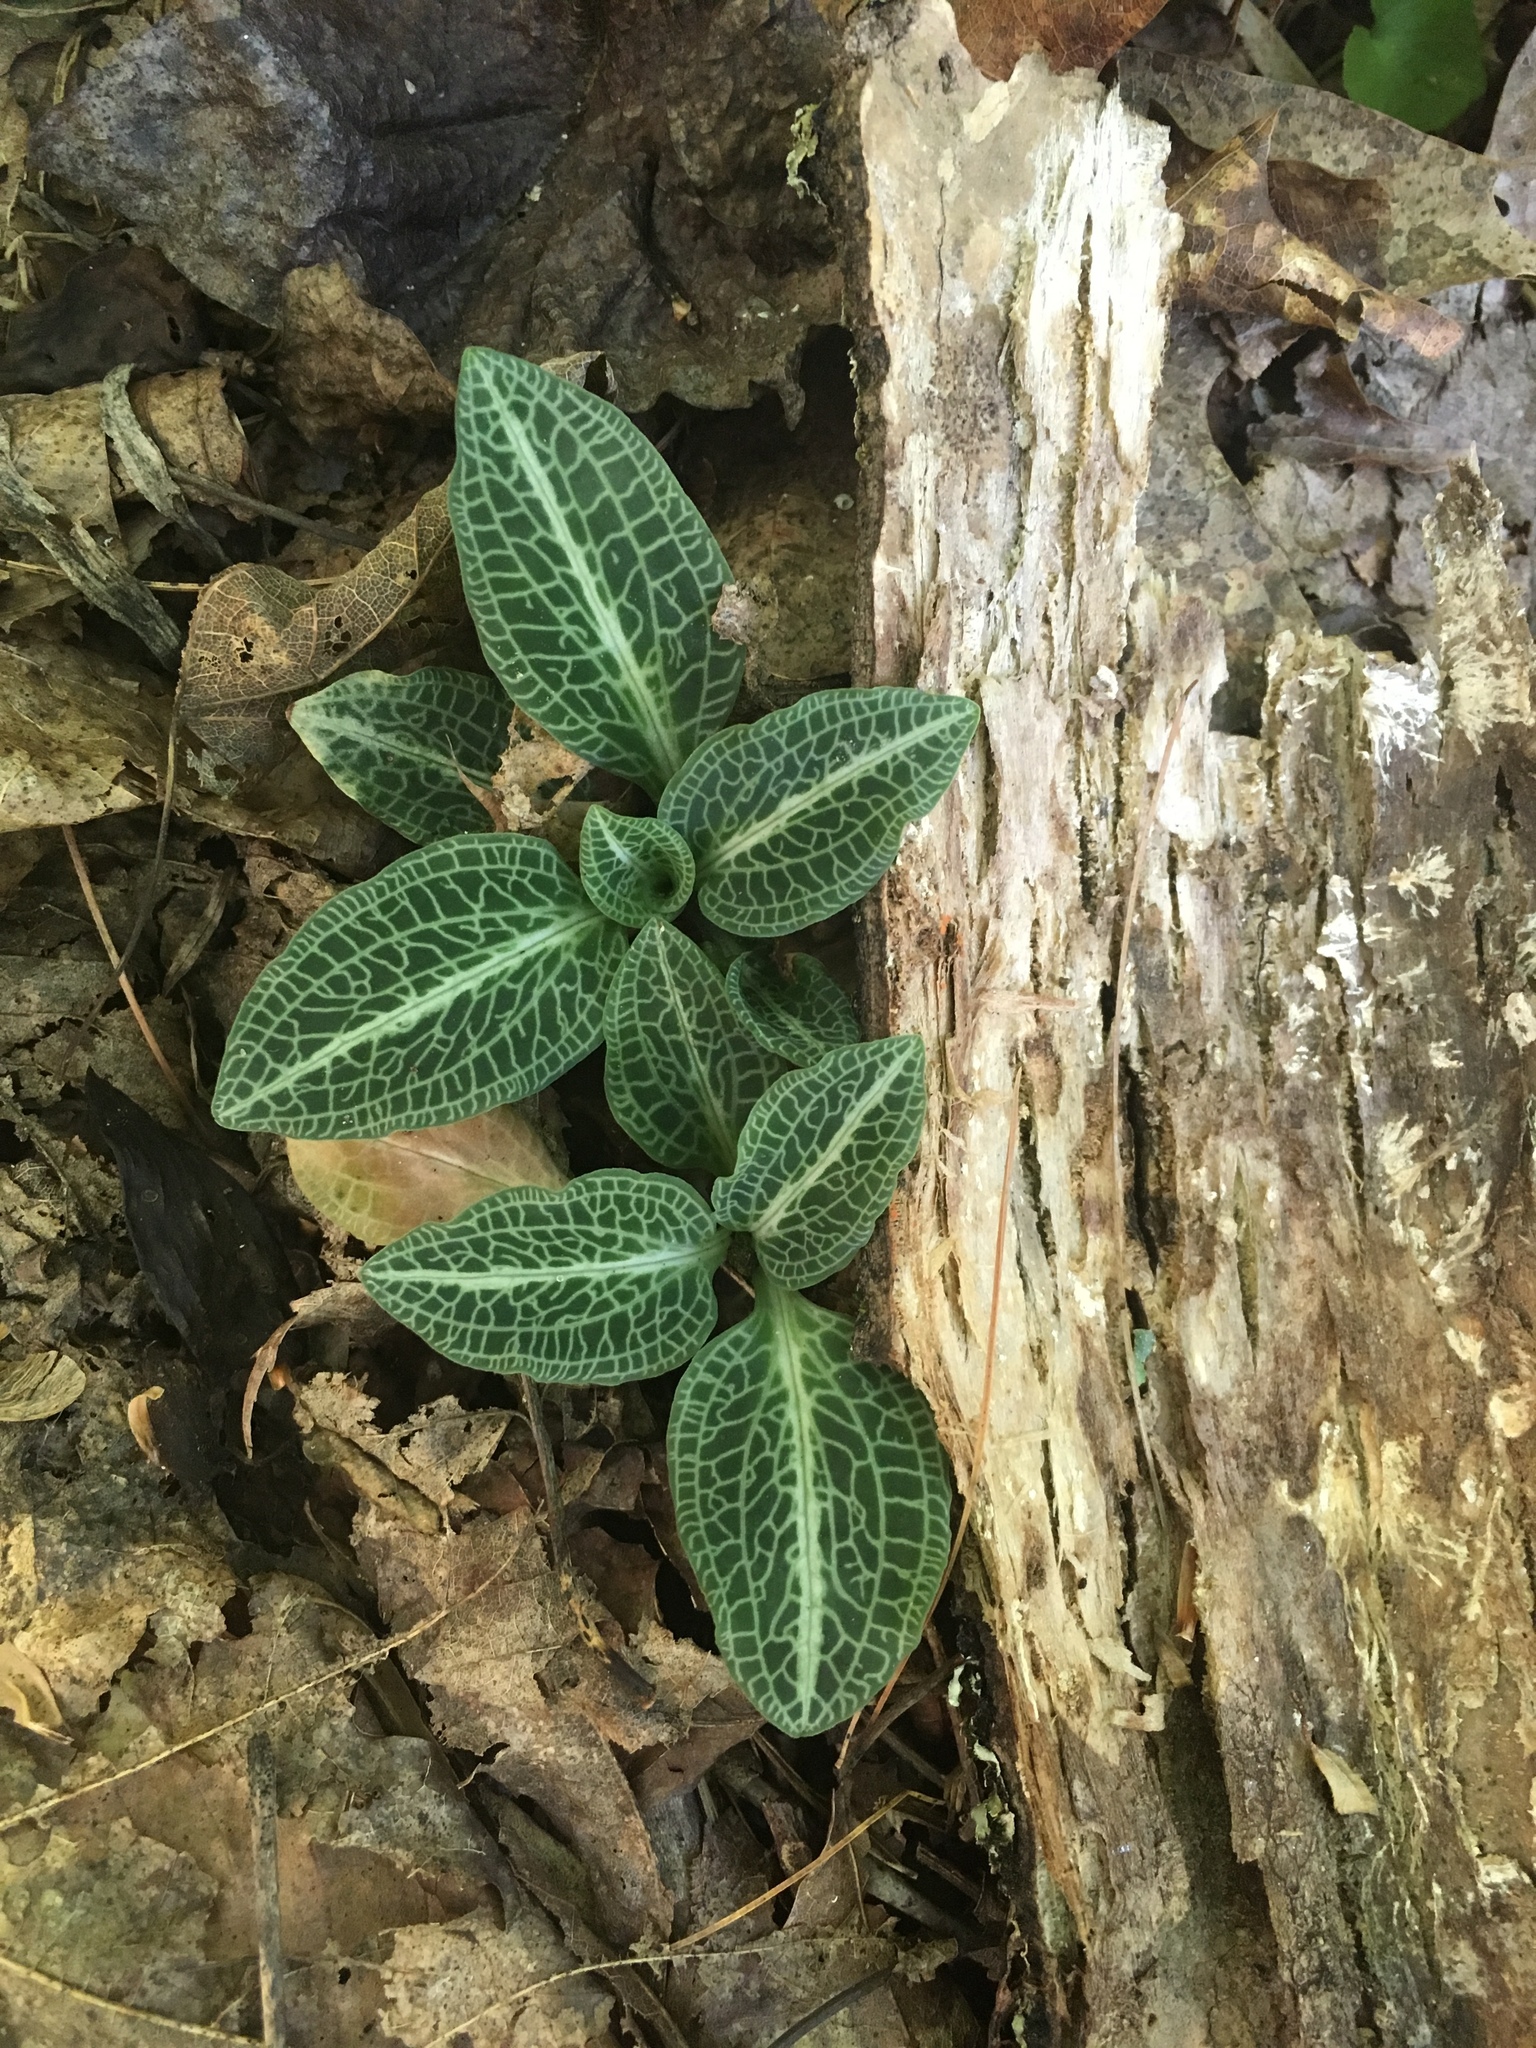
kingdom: Plantae
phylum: Tracheophyta
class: Liliopsida
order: Asparagales
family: Orchidaceae
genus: Goodyera
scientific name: Goodyera pubescens
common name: Downy rattlesnake-plantain
